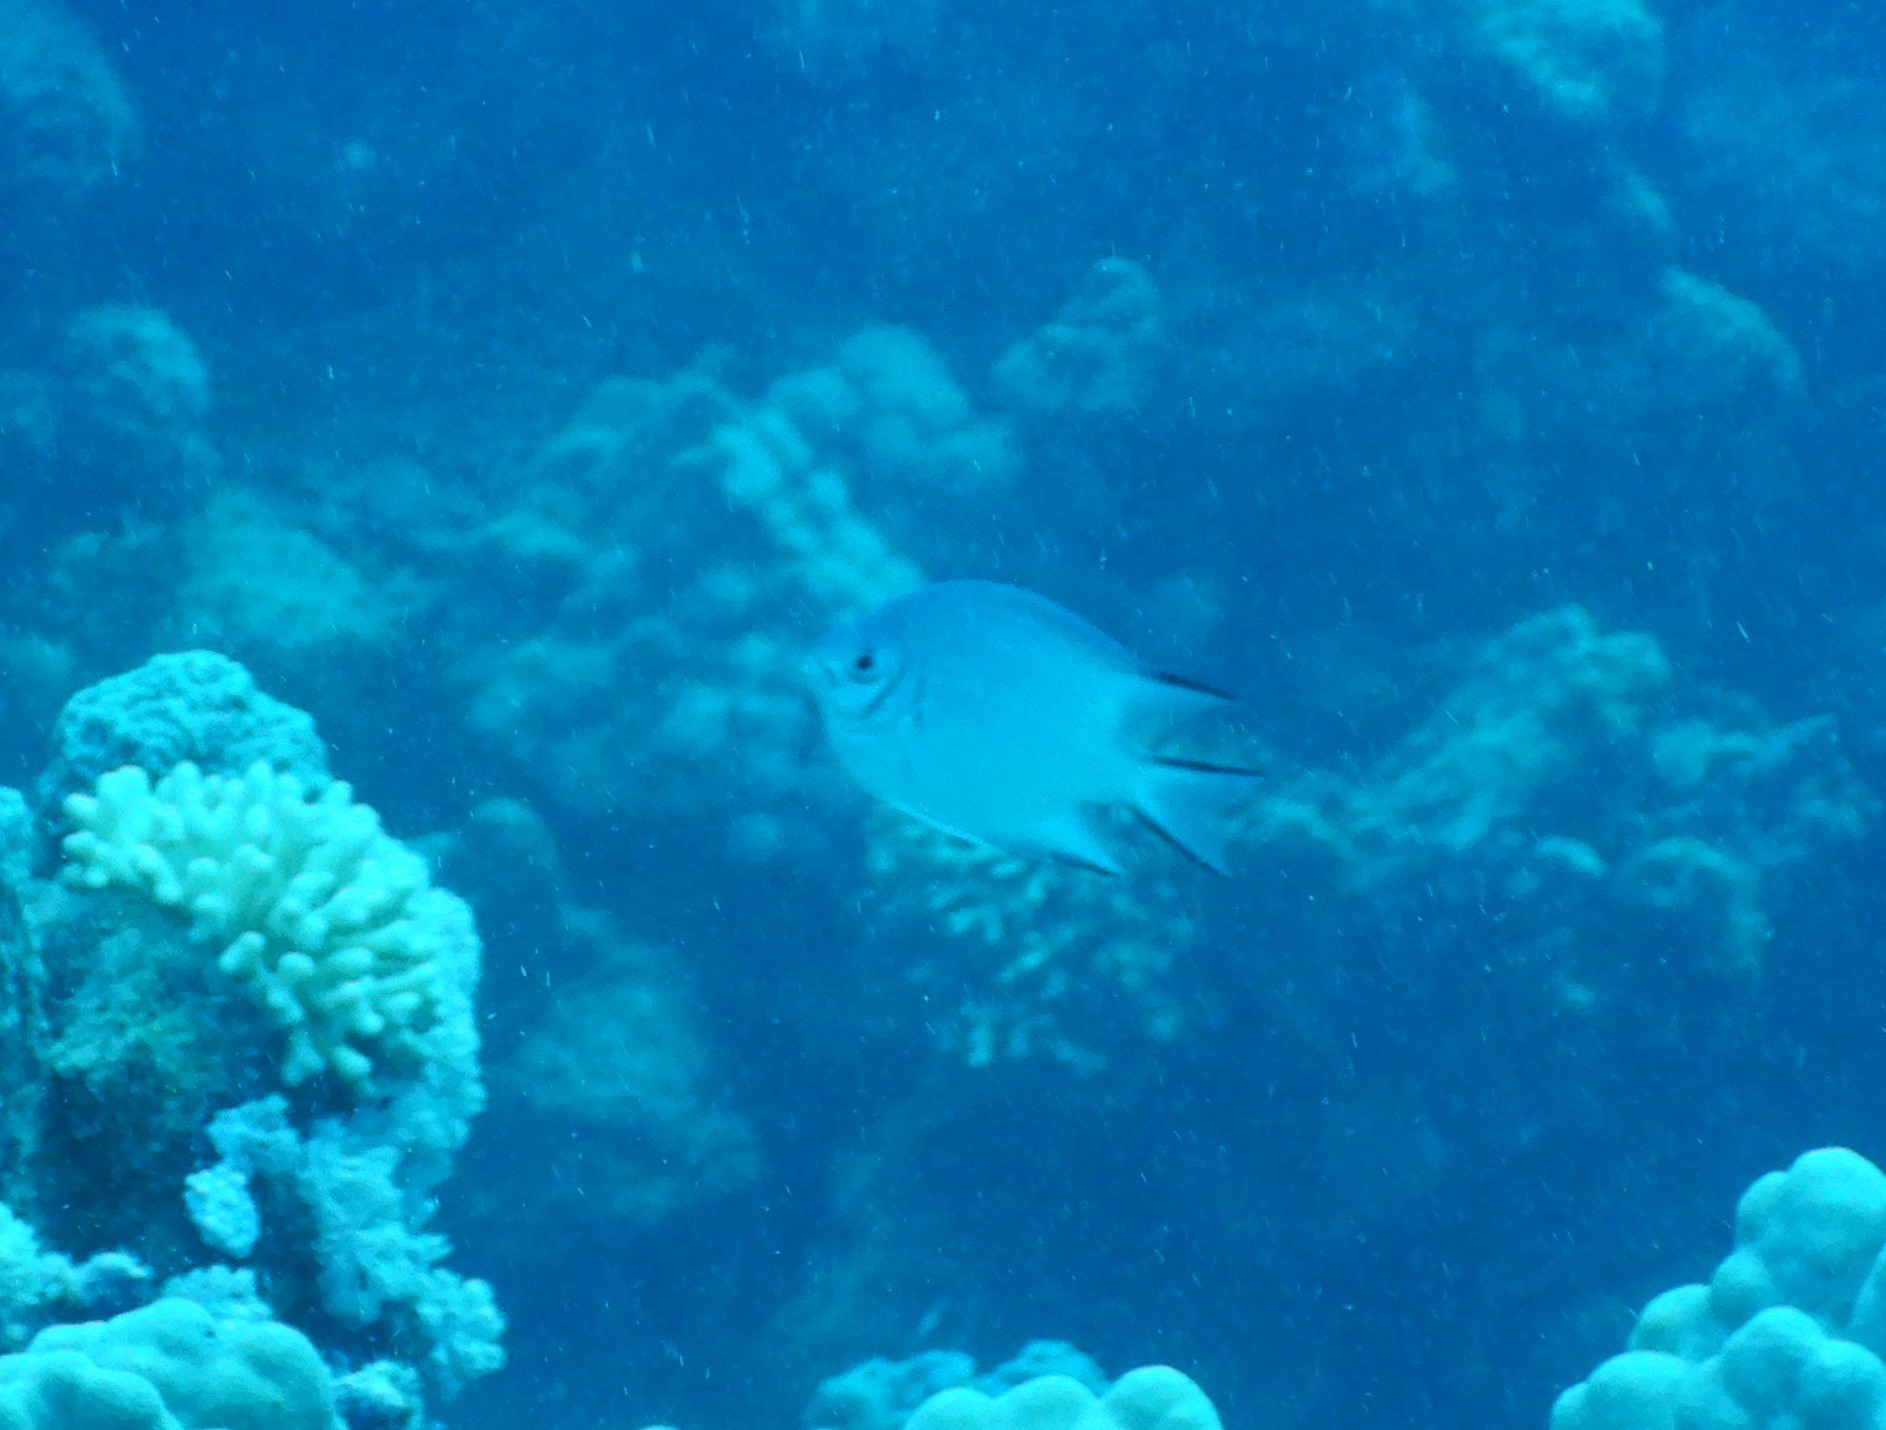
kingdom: Animalia
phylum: Chordata
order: Perciformes
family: Pomacentridae
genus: Amblyglyphidodon
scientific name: Amblyglyphidodon indicus
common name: Maldives damselfish
